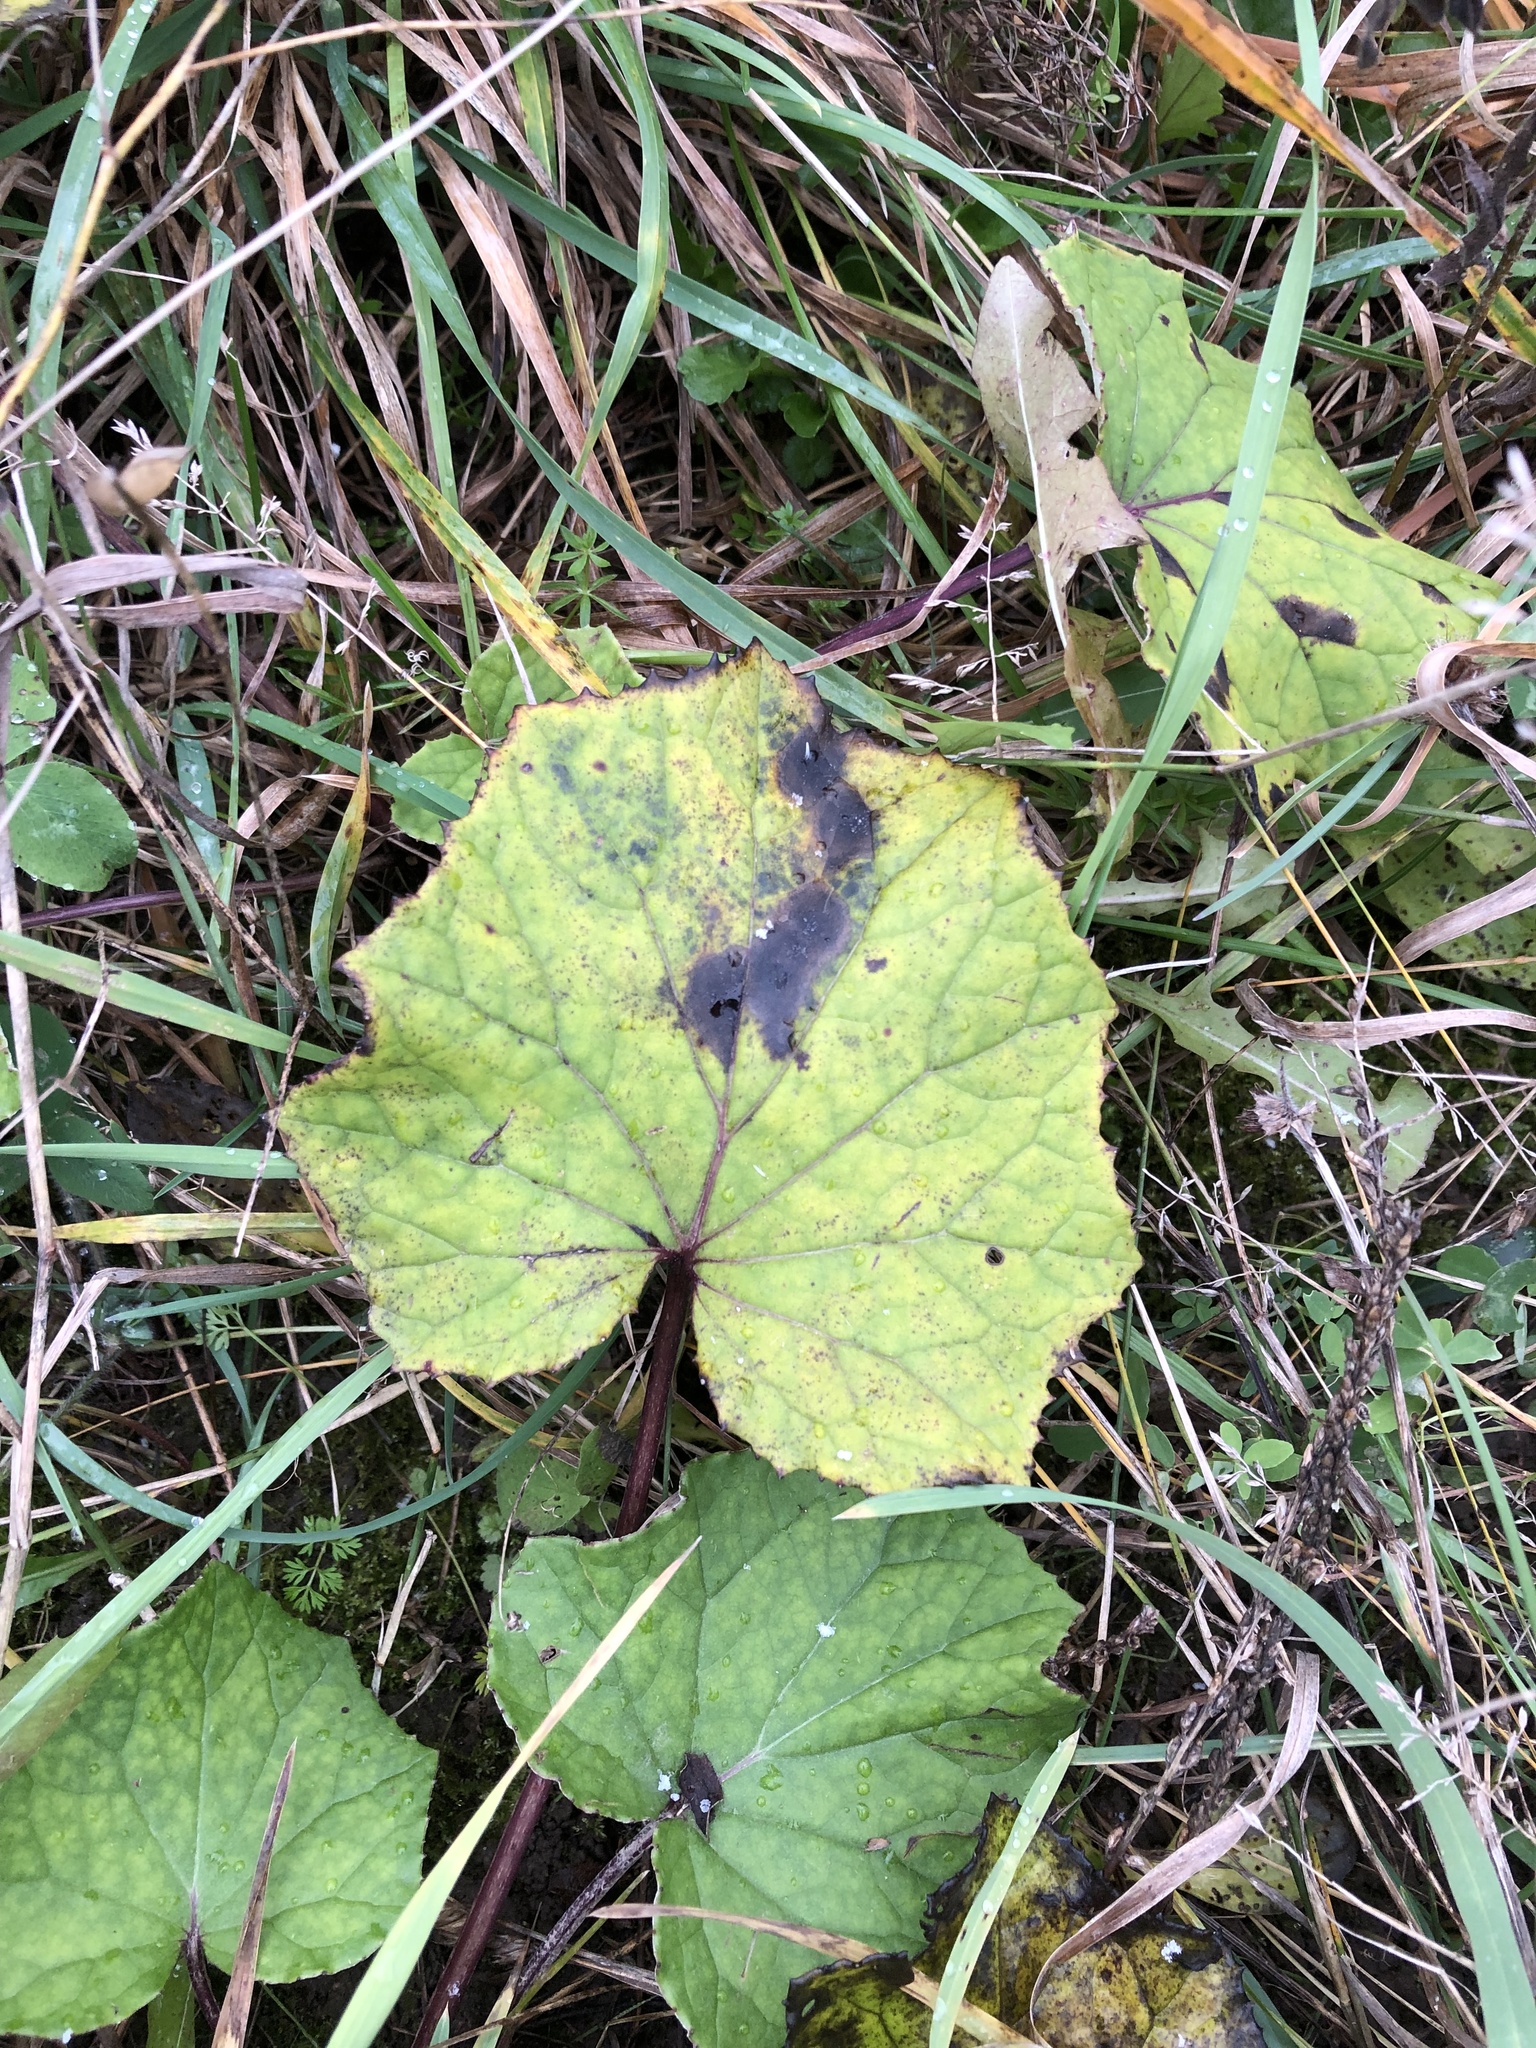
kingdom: Plantae
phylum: Tracheophyta
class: Magnoliopsida
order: Asterales
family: Asteraceae
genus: Tussilago
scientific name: Tussilago farfara
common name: Coltsfoot
